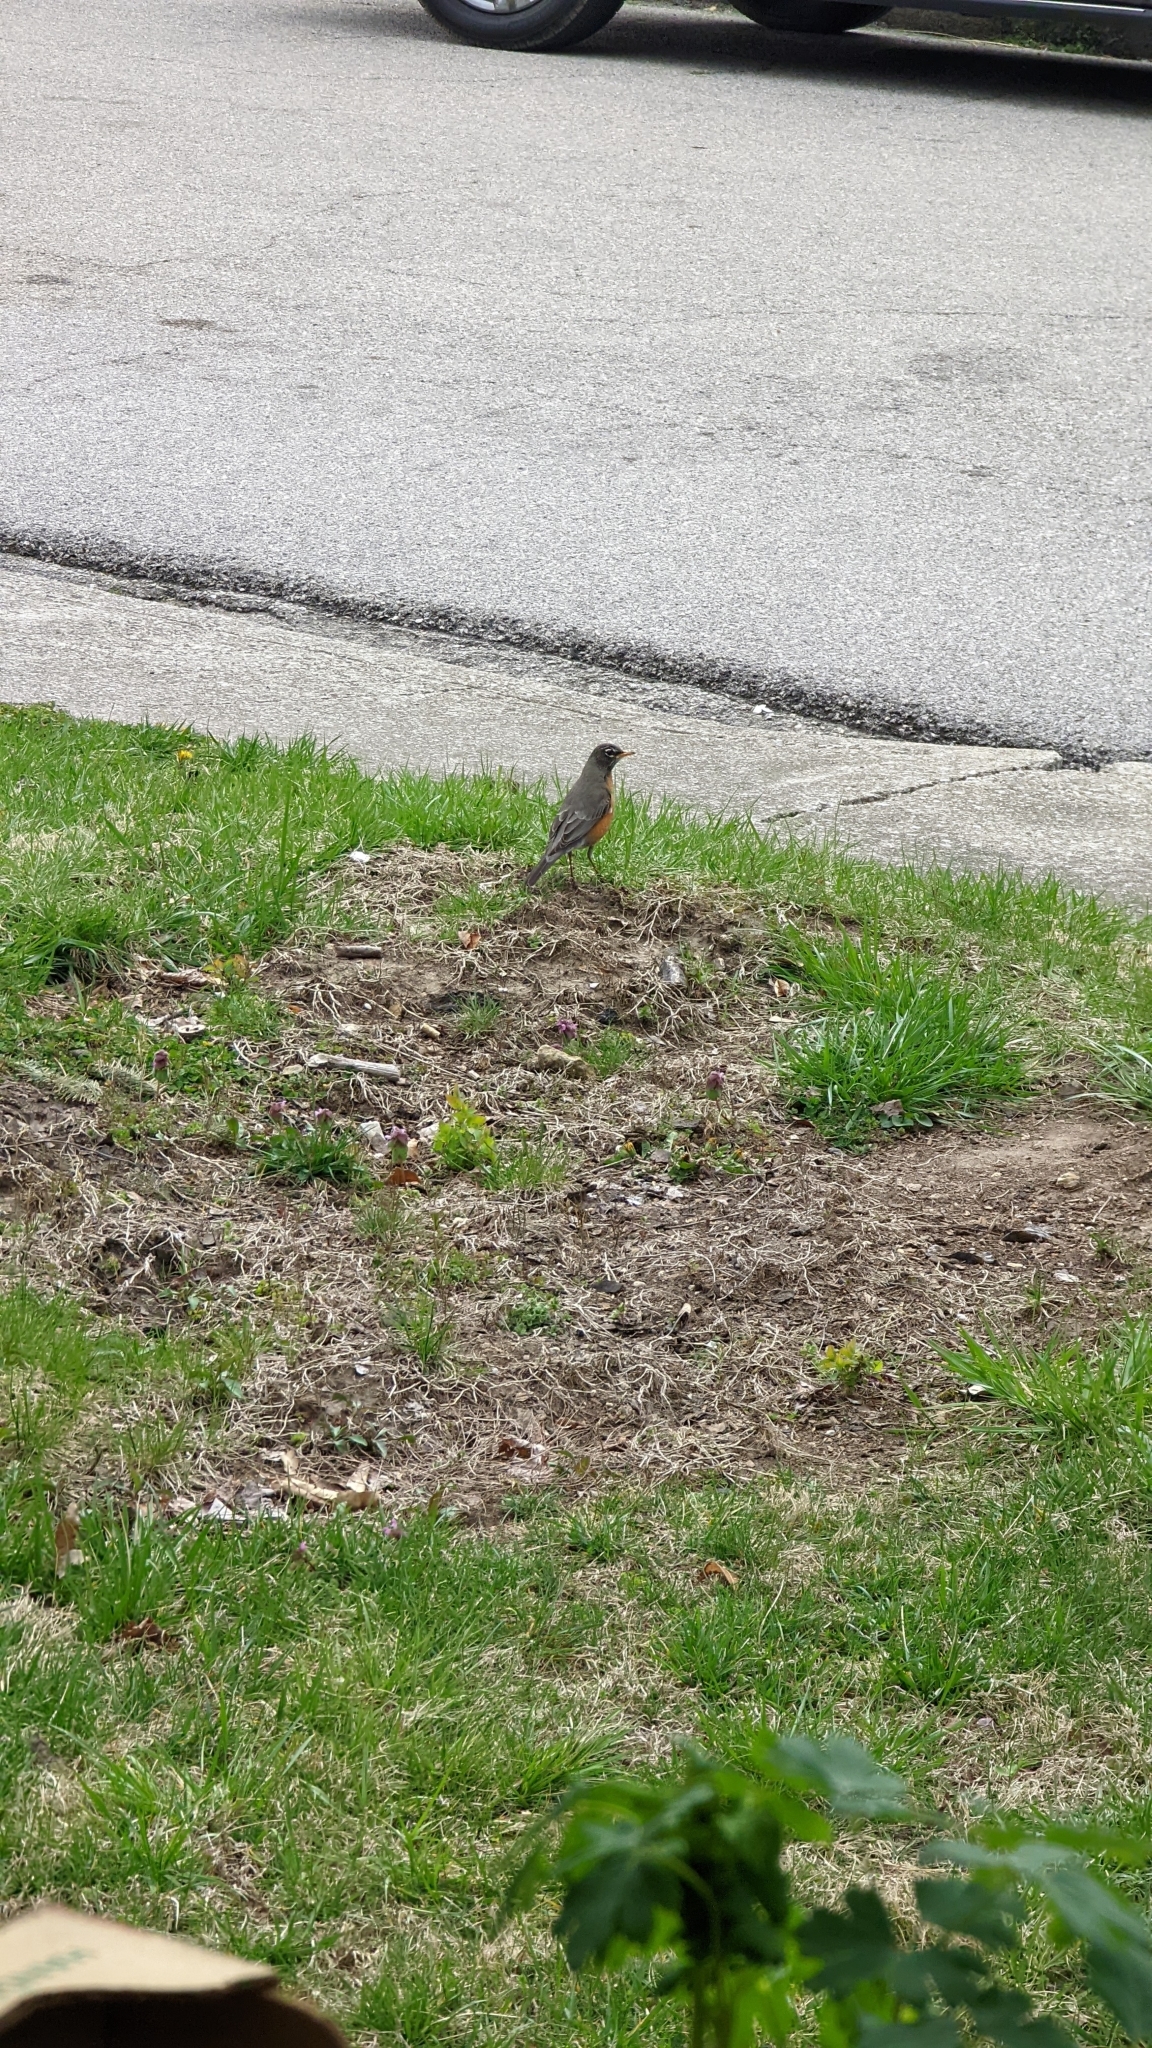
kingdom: Animalia
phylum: Chordata
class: Aves
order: Passeriformes
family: Turdidae
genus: Turdus
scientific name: Turdus migratorius
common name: American robin
